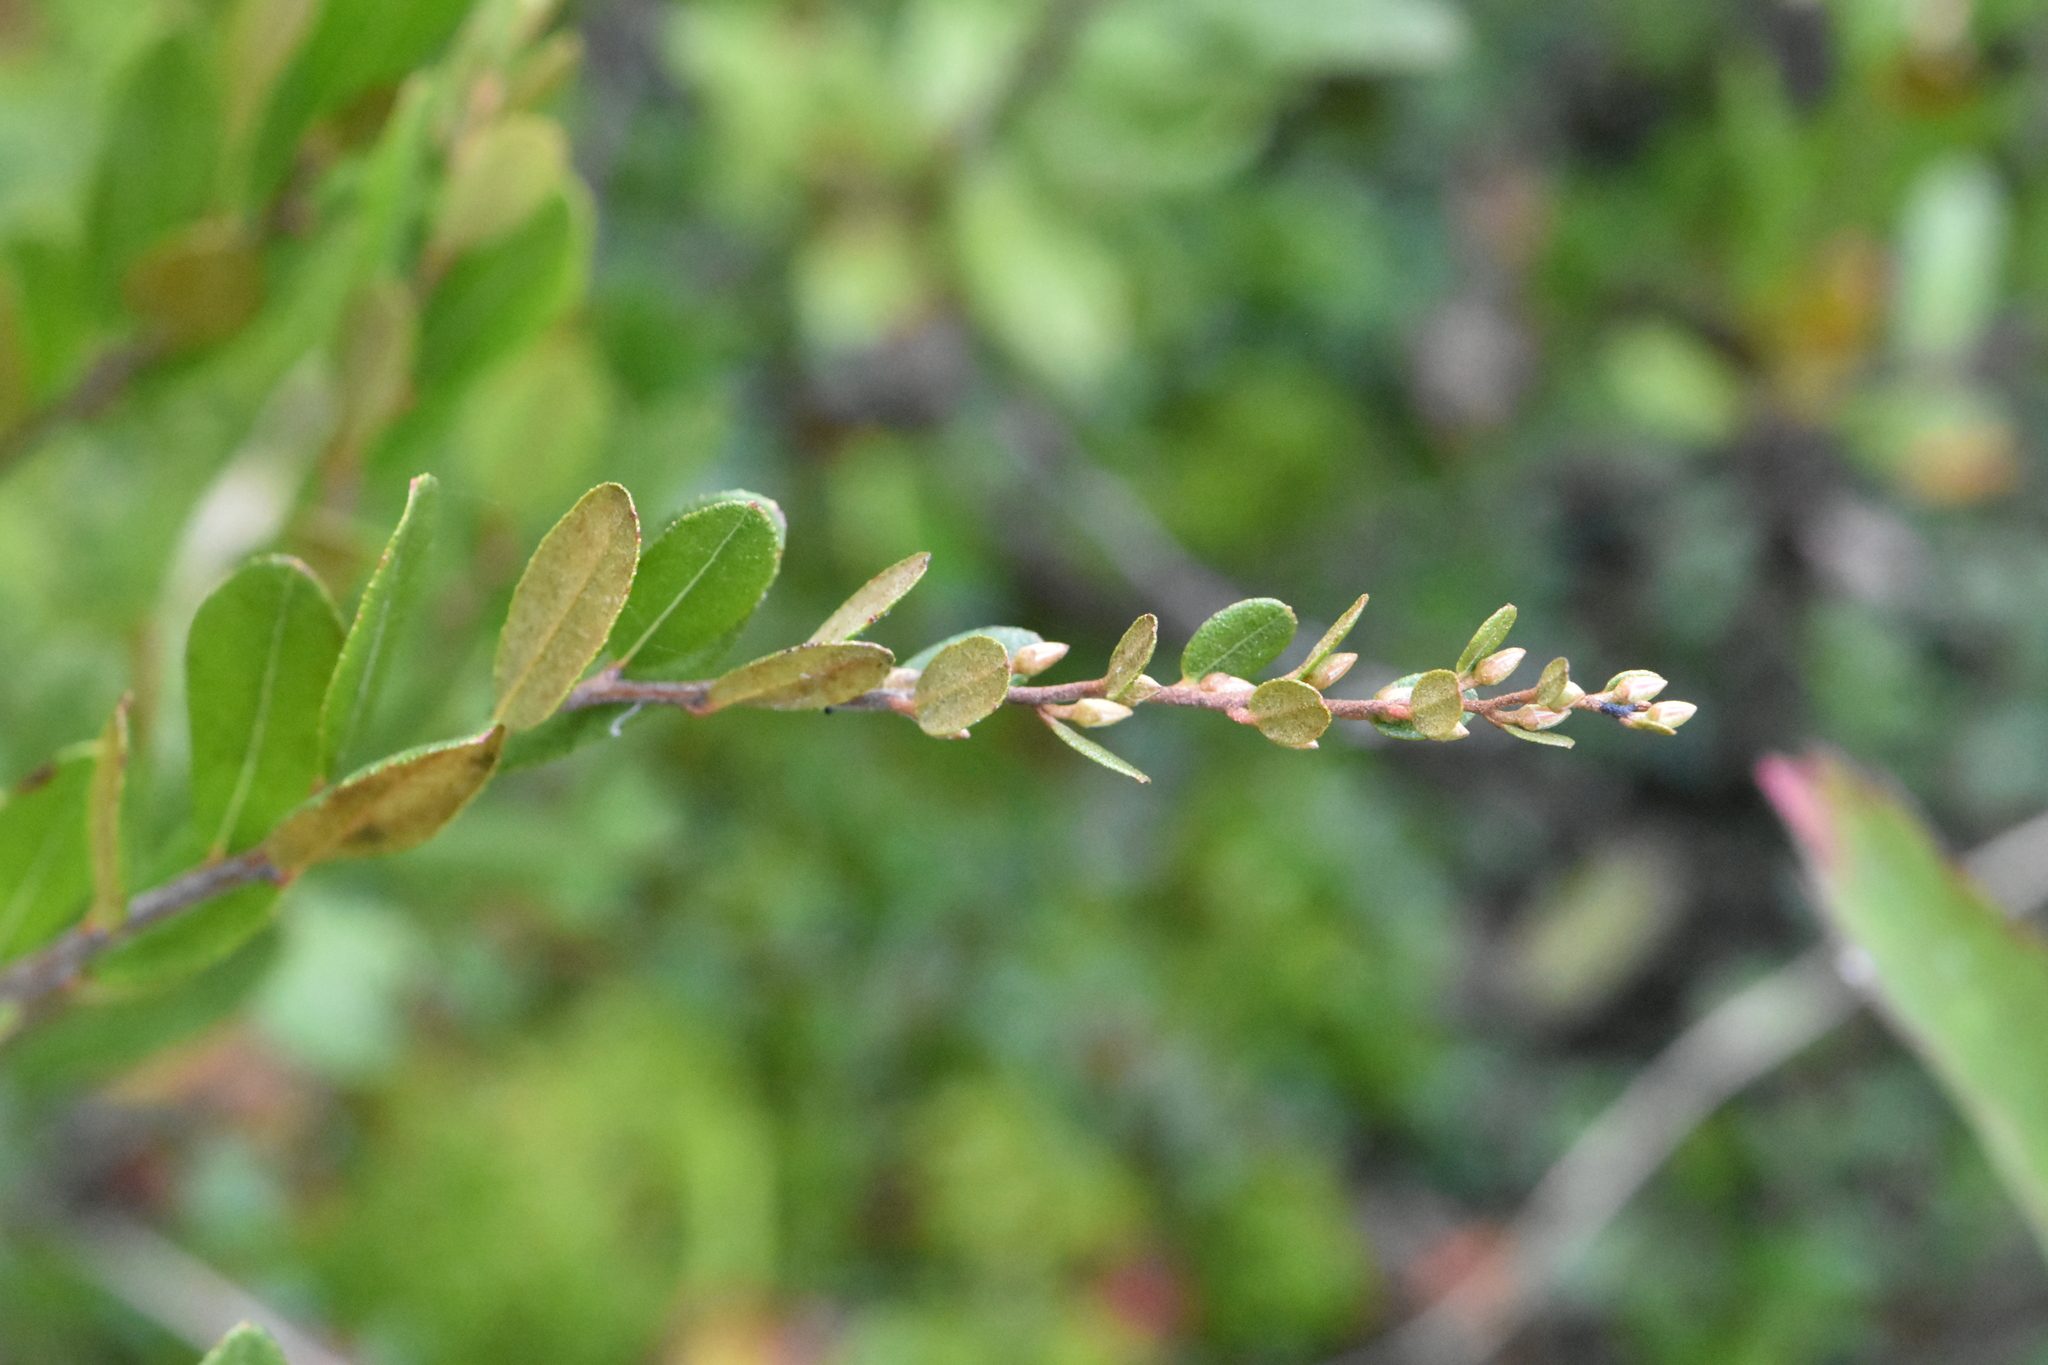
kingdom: Plantae
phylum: Tracheophyta
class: Magnoliopsida
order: Ericales
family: Ericaceae
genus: Chamaedaphne
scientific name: Chamaedaphne calyculata
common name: Leatherleaf
